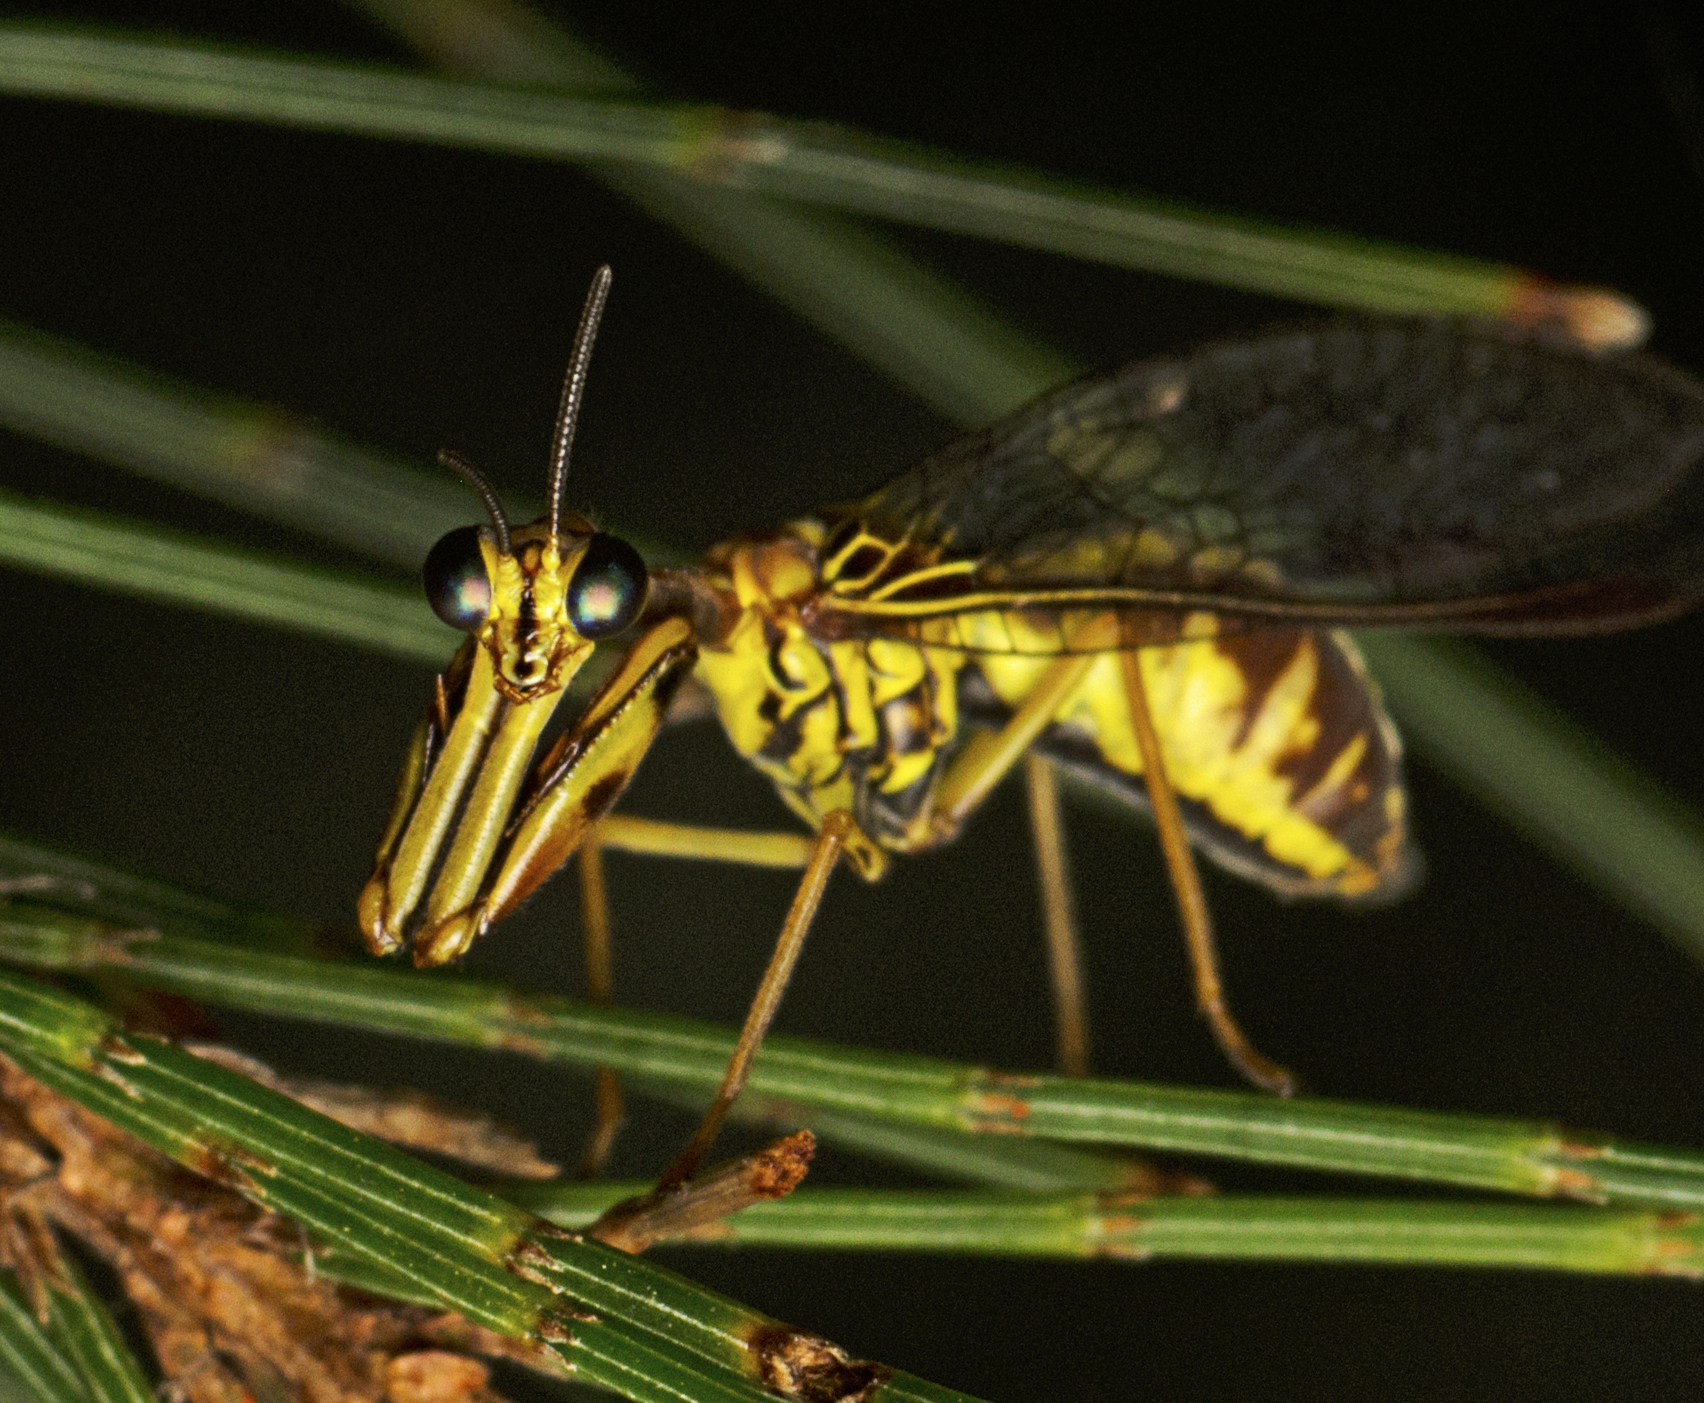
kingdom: Animalia
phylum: Arthropoda
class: Insecta
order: Neuroptera
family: Mantispidae
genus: Spaminta
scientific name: Spaminta minjerribae
